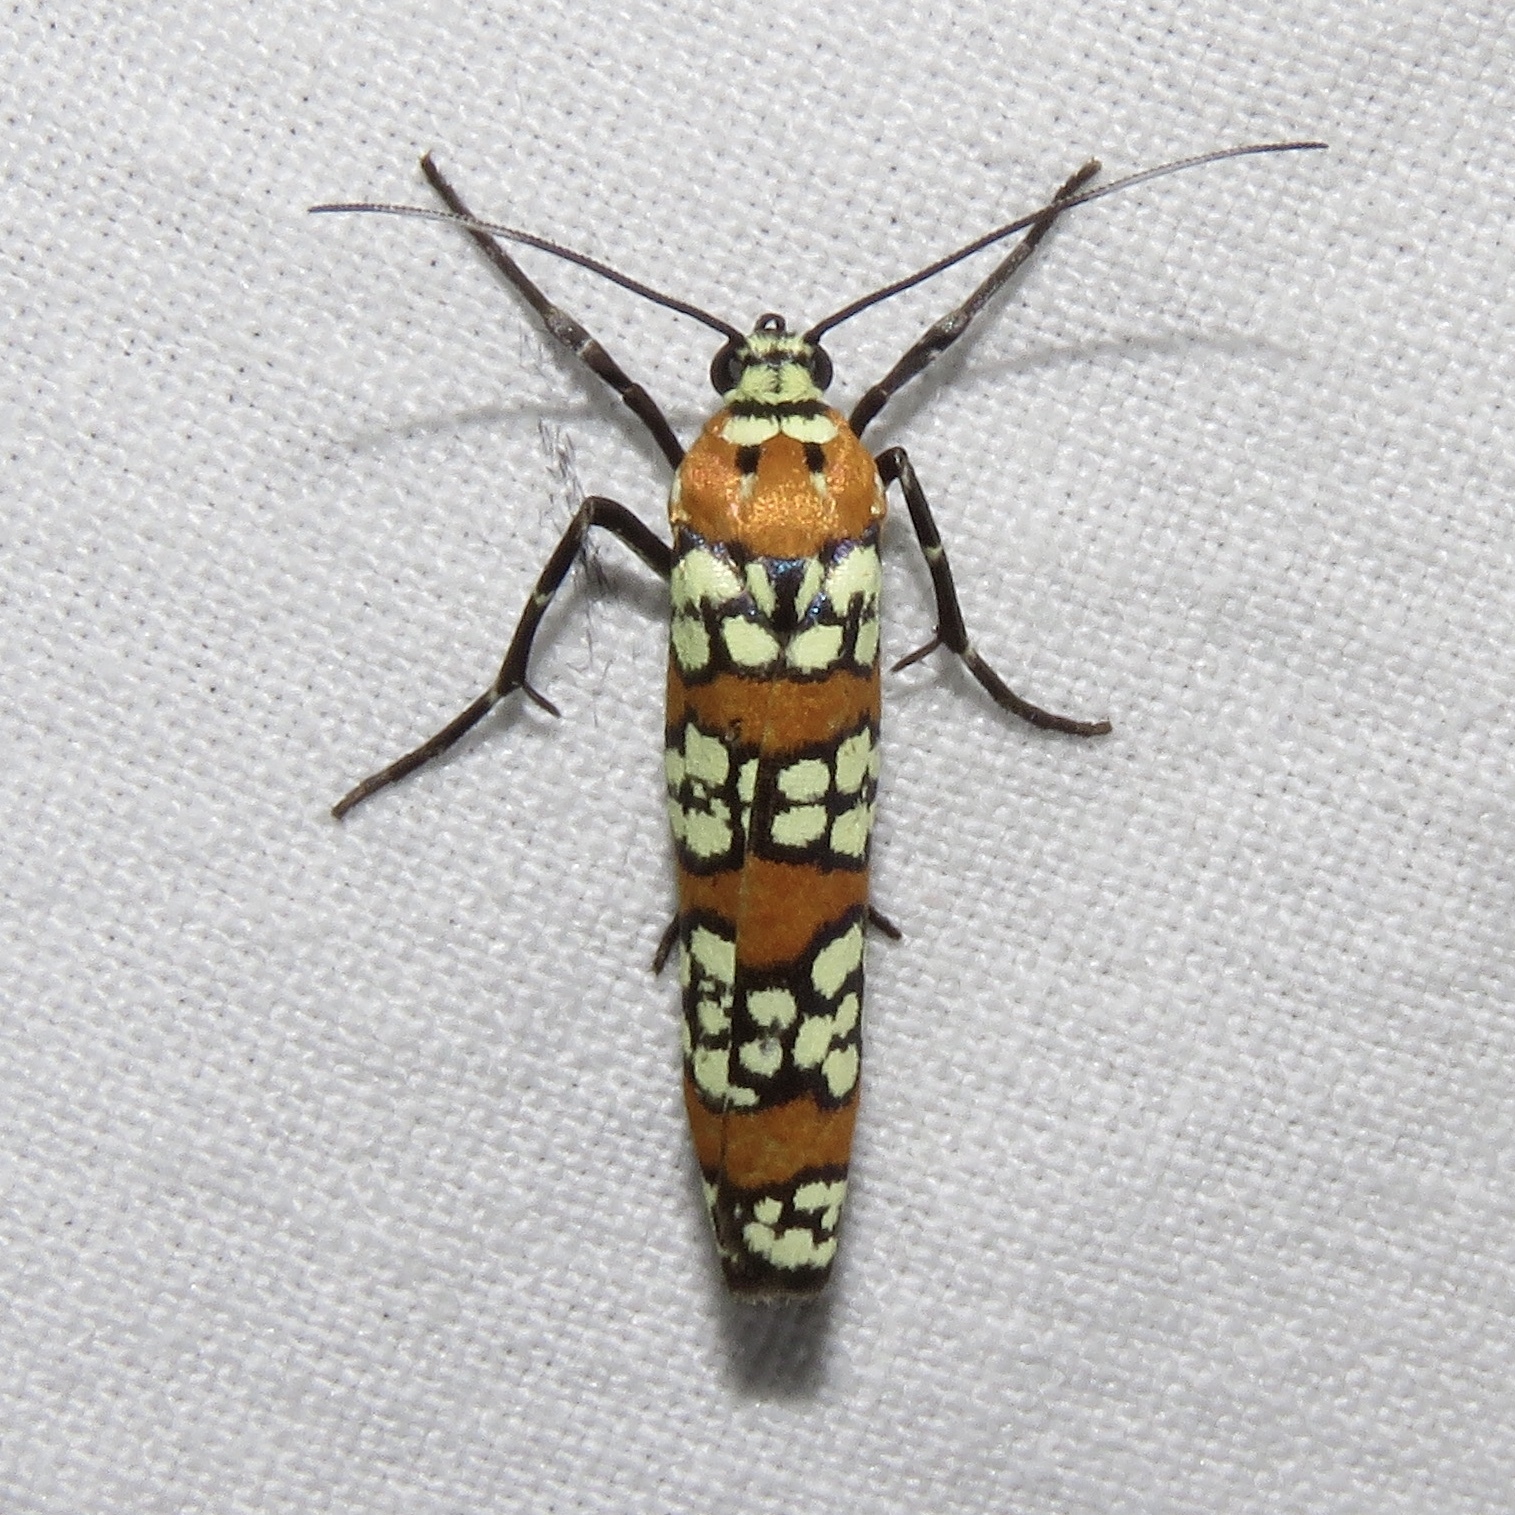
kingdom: Animalia
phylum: Arthropoda
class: Insecta
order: Lepidoptera
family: Attevidae
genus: Atteva
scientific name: Atteva punctella
